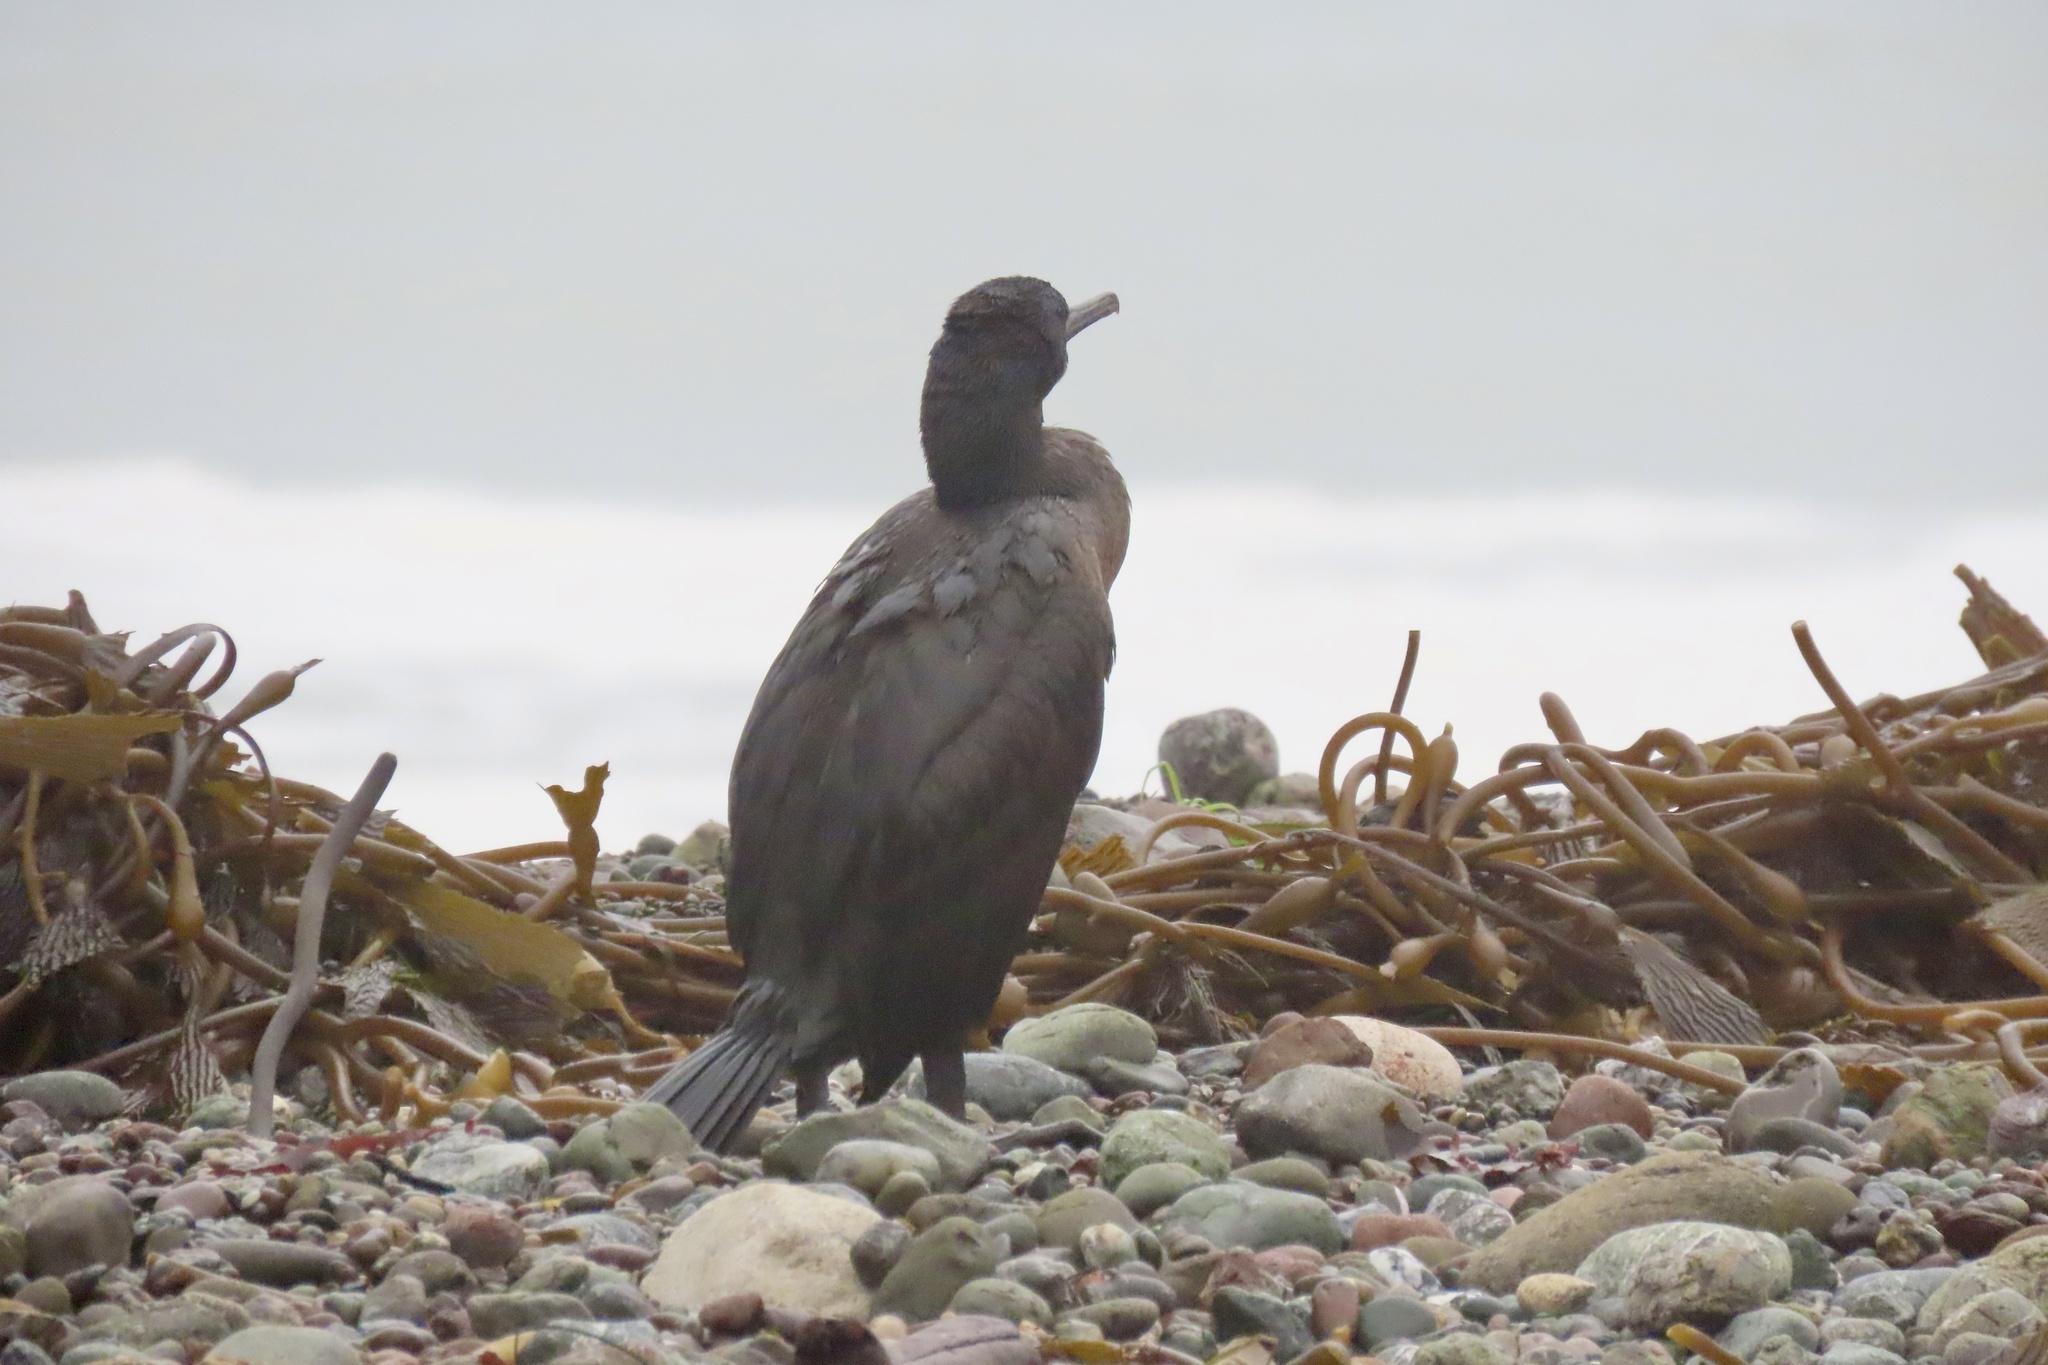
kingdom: Animalia
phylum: Chordata
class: Aves
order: Suliformes
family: Phalacrocoracidae
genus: Urile
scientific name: Urile penicillatus
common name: Brandt's cormorant
